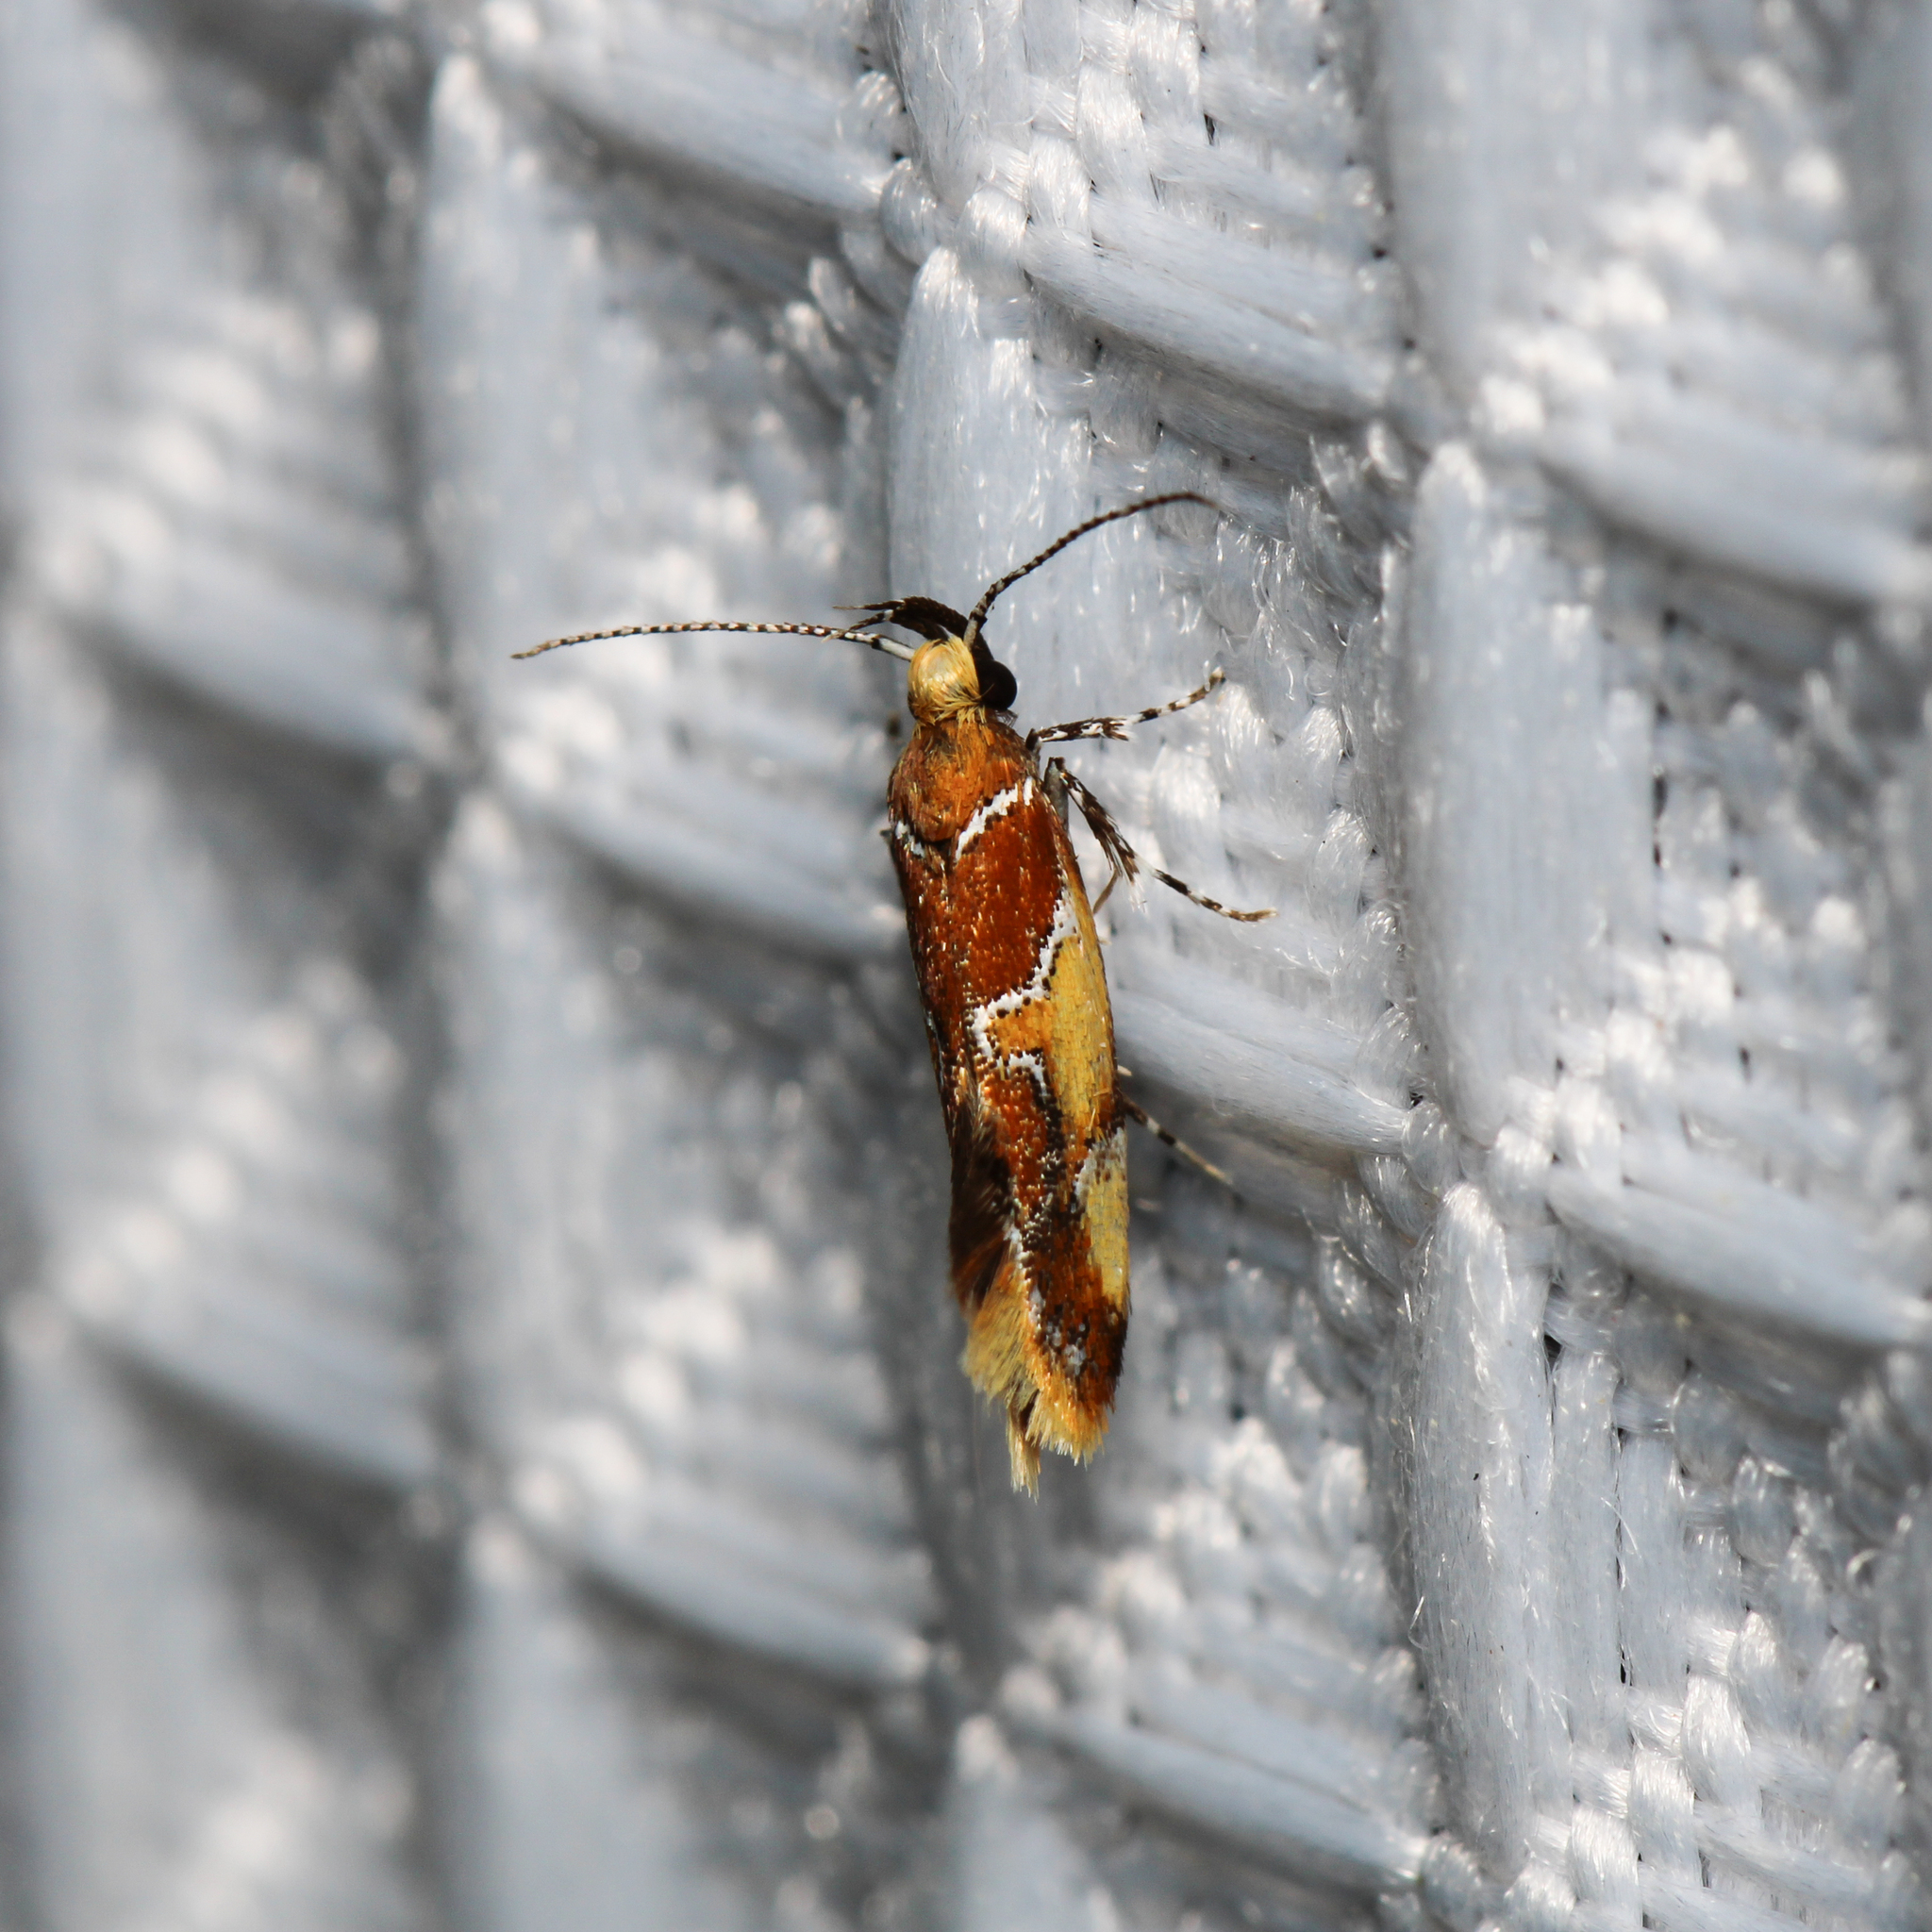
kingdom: Animalia
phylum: Arthropoda
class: Insecta
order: Lepidoptera
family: Oecophoridae
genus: Callima
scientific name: Callima argenticinctella
